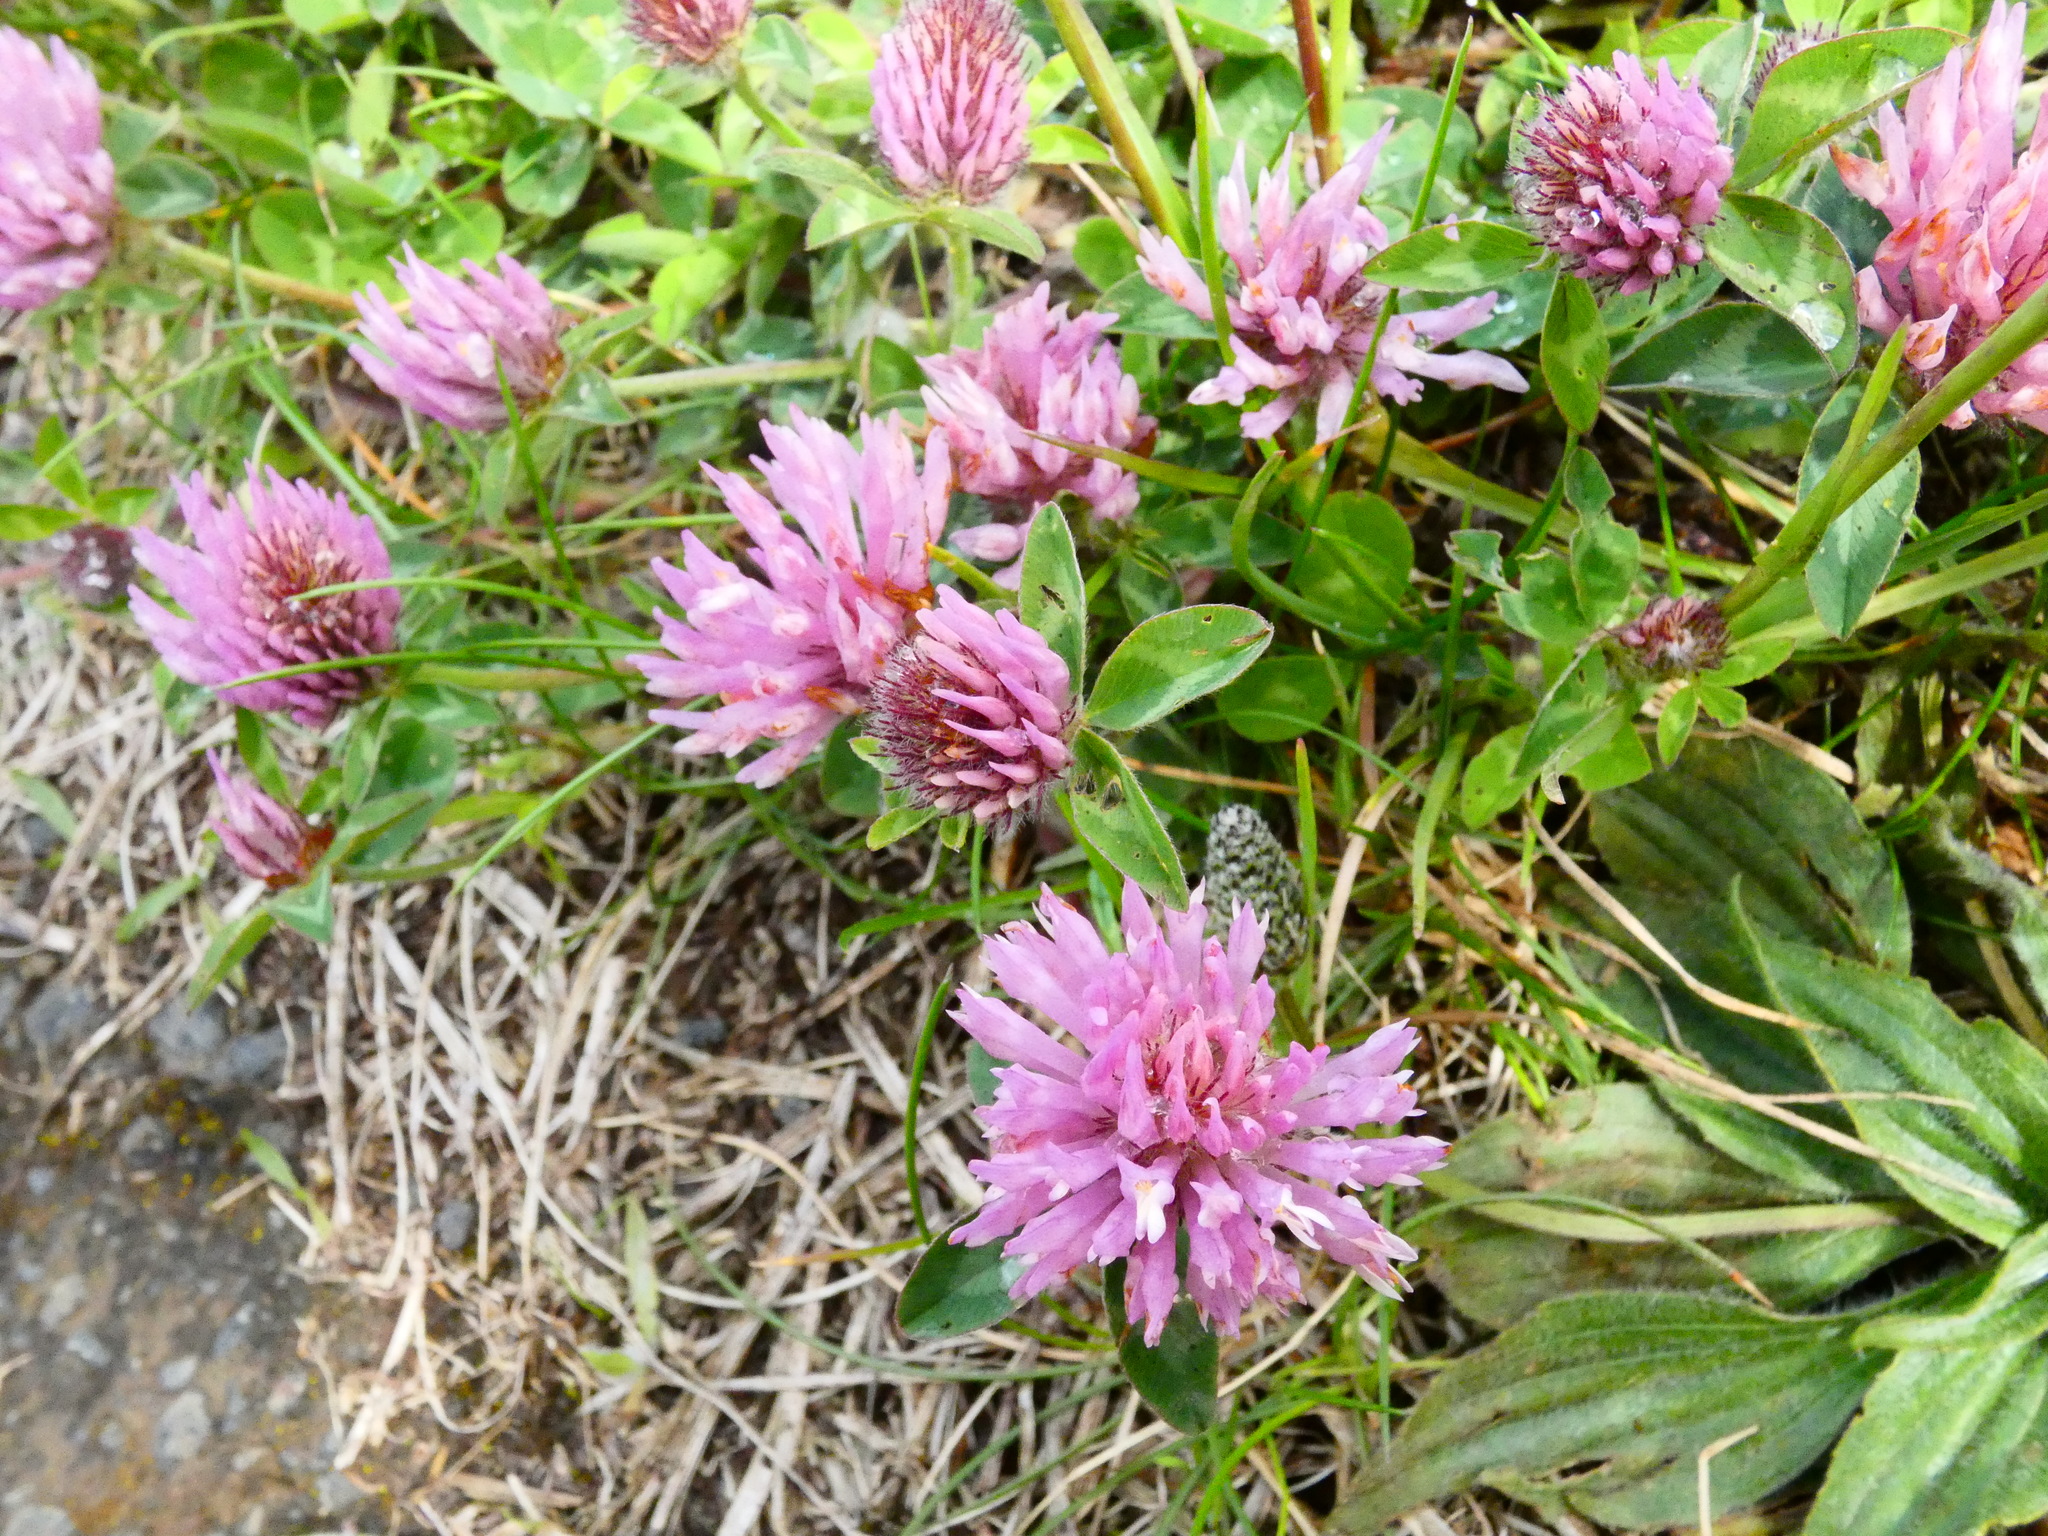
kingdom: Plantae
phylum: Tracheophyta
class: Magnoliopsida
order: Fabales
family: Fabaceae
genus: Trifolium
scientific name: Trifolium pratense
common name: Red clover
